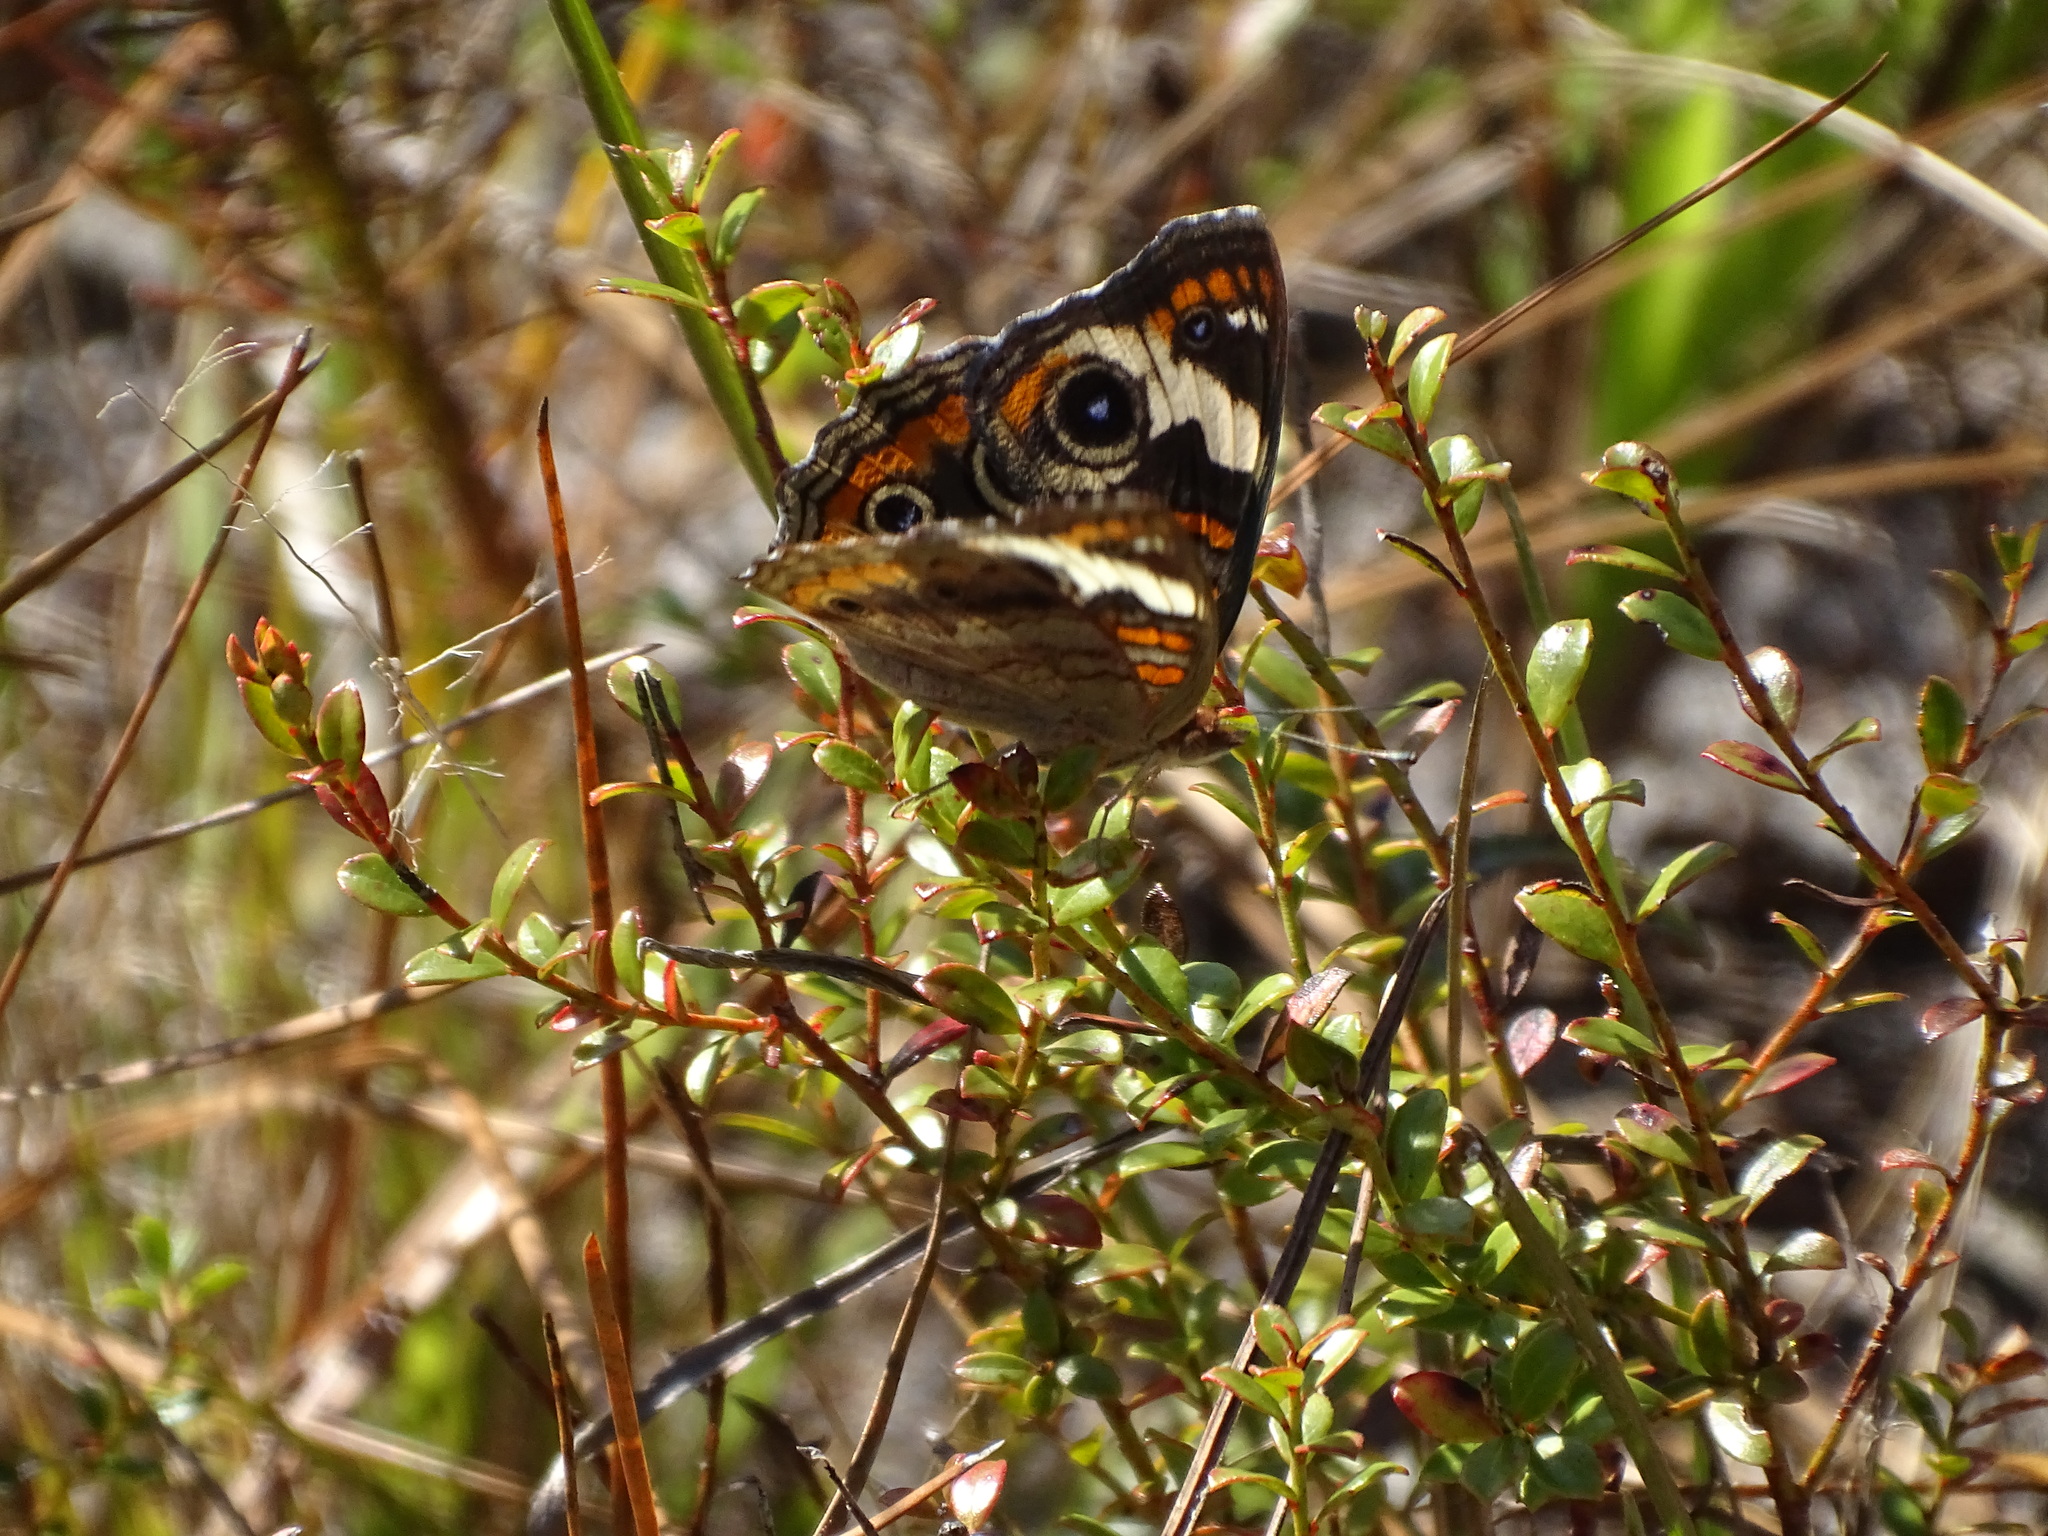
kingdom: Animalia
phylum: Arthropoda
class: Insecta
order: Lepidoptera
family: Nymphalidae
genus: Junonia
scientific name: Junonia coenia
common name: Common buckeye
